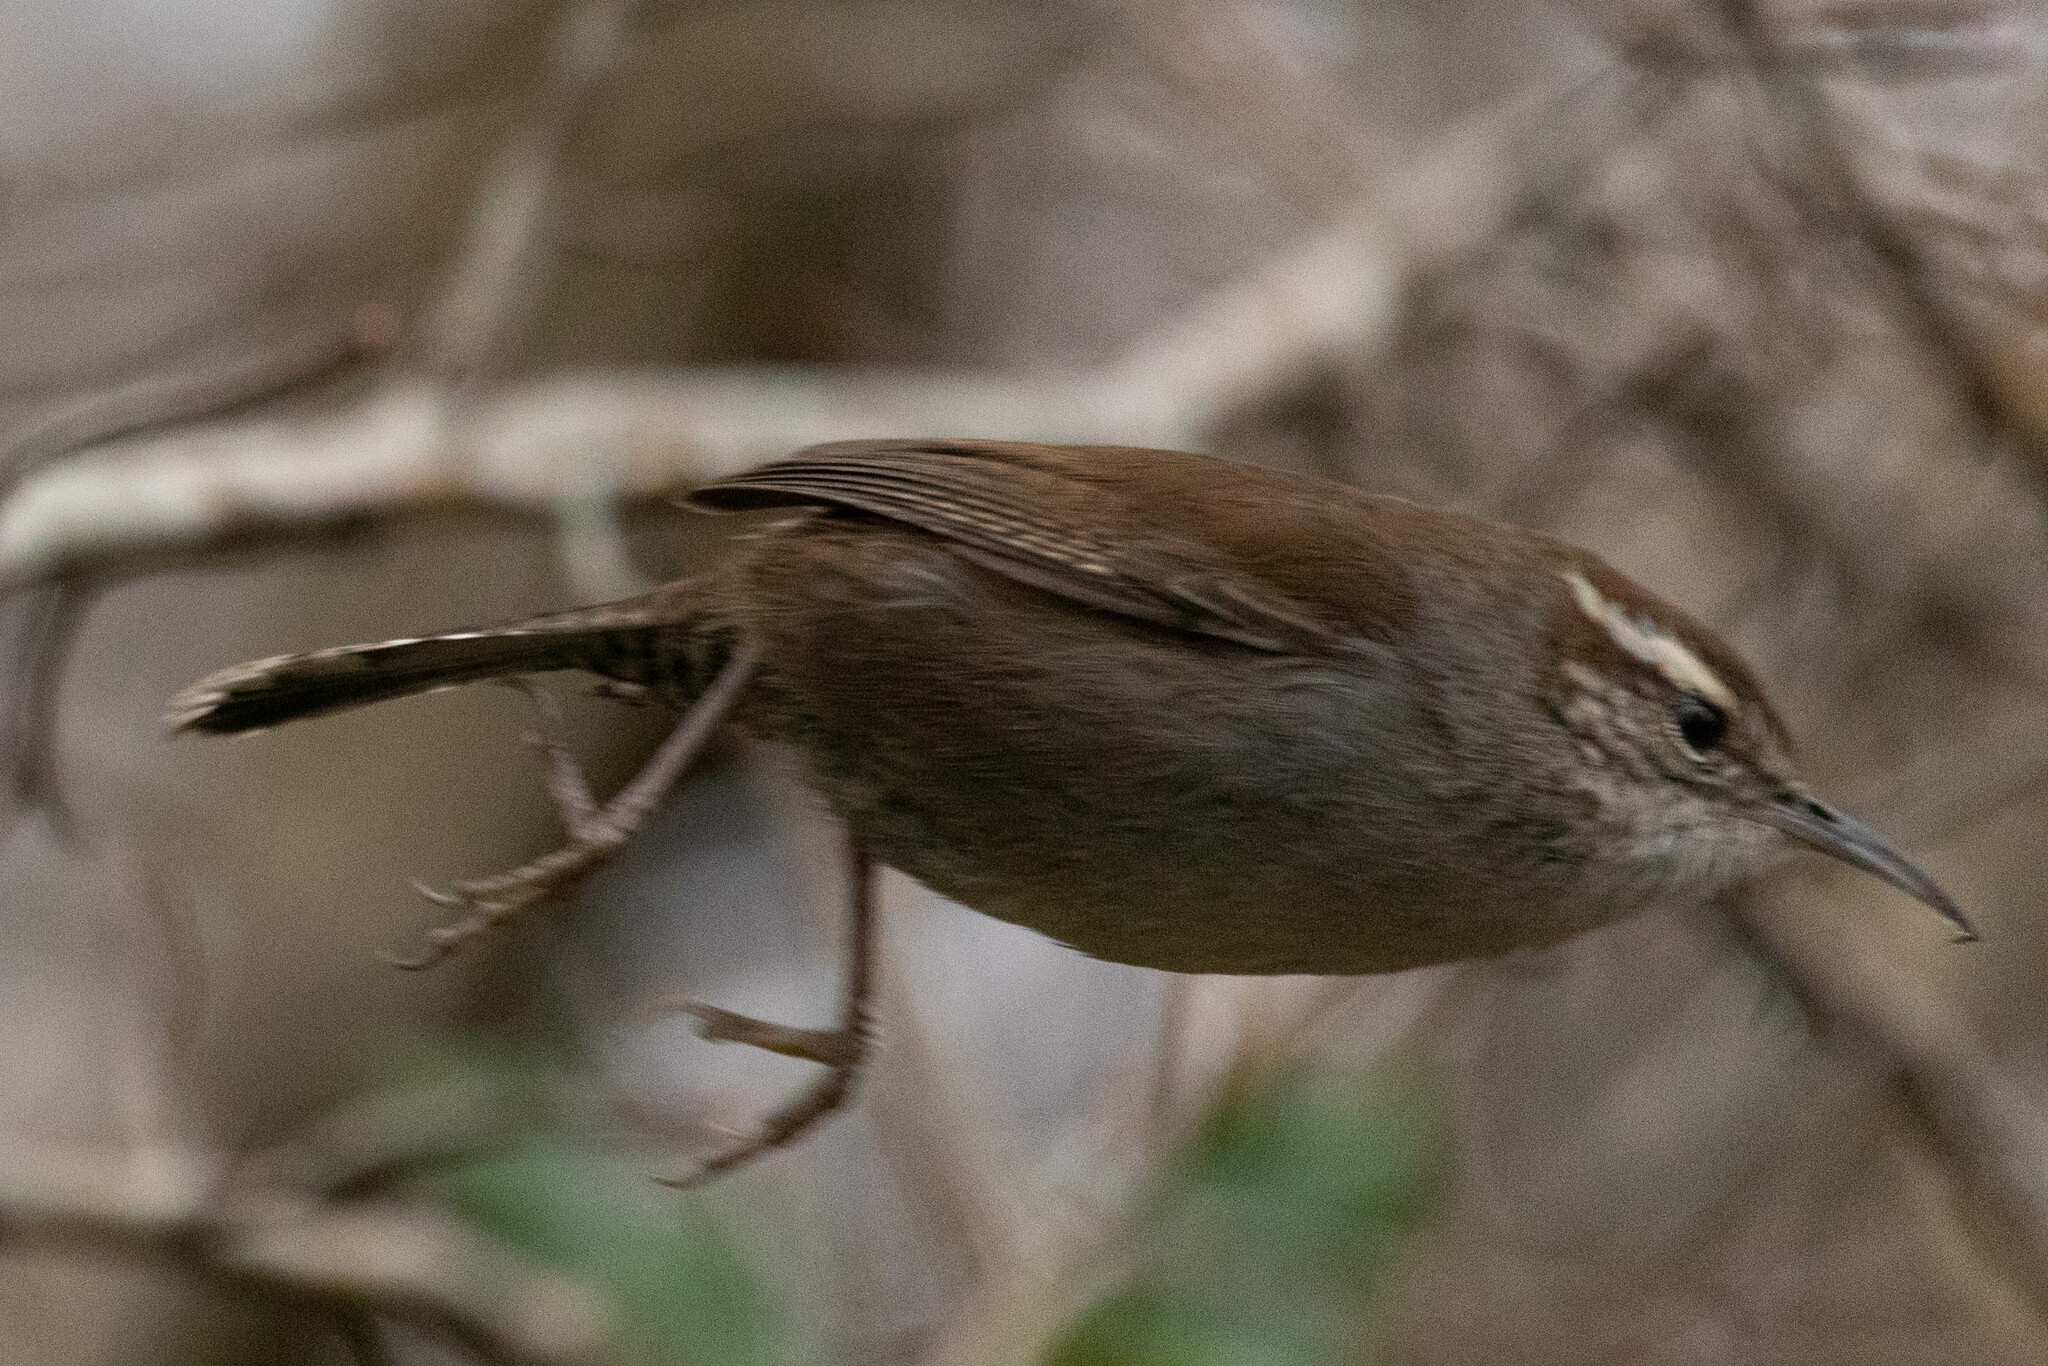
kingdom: Animalia
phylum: Chordata
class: Aves
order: Passeriformes
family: Troglodytidae
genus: Thryomanes
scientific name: Thryomanes bewickii
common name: Bewick's wren
